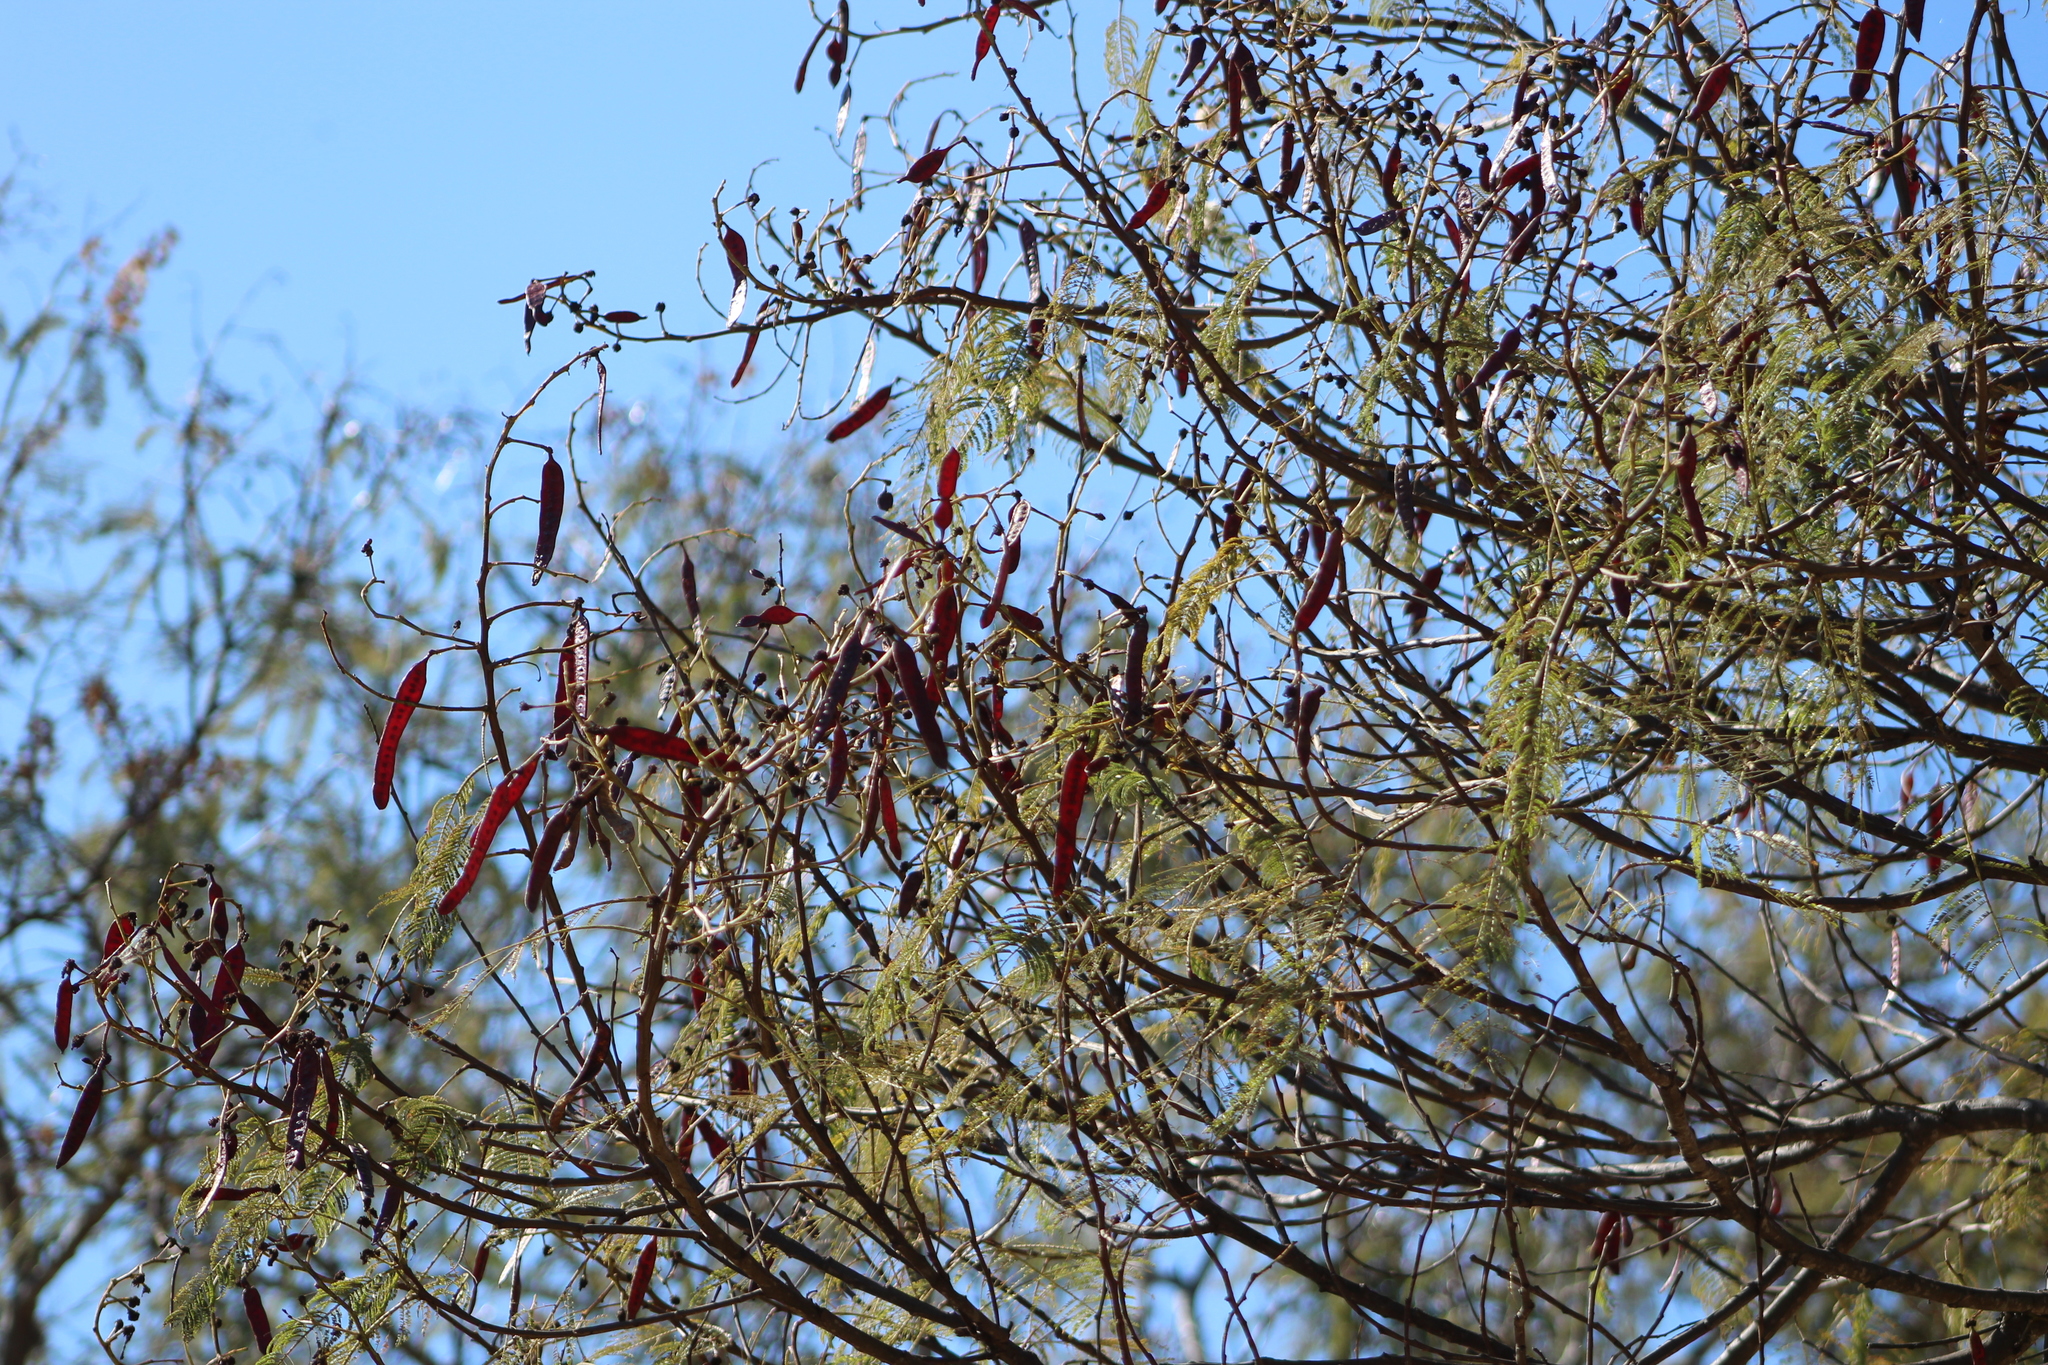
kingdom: Plantae
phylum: Tracheophyta
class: Magnoliopsida
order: Fabales
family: Fabaceae
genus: Leucaena
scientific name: Leucaena esculenta
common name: Guaje
